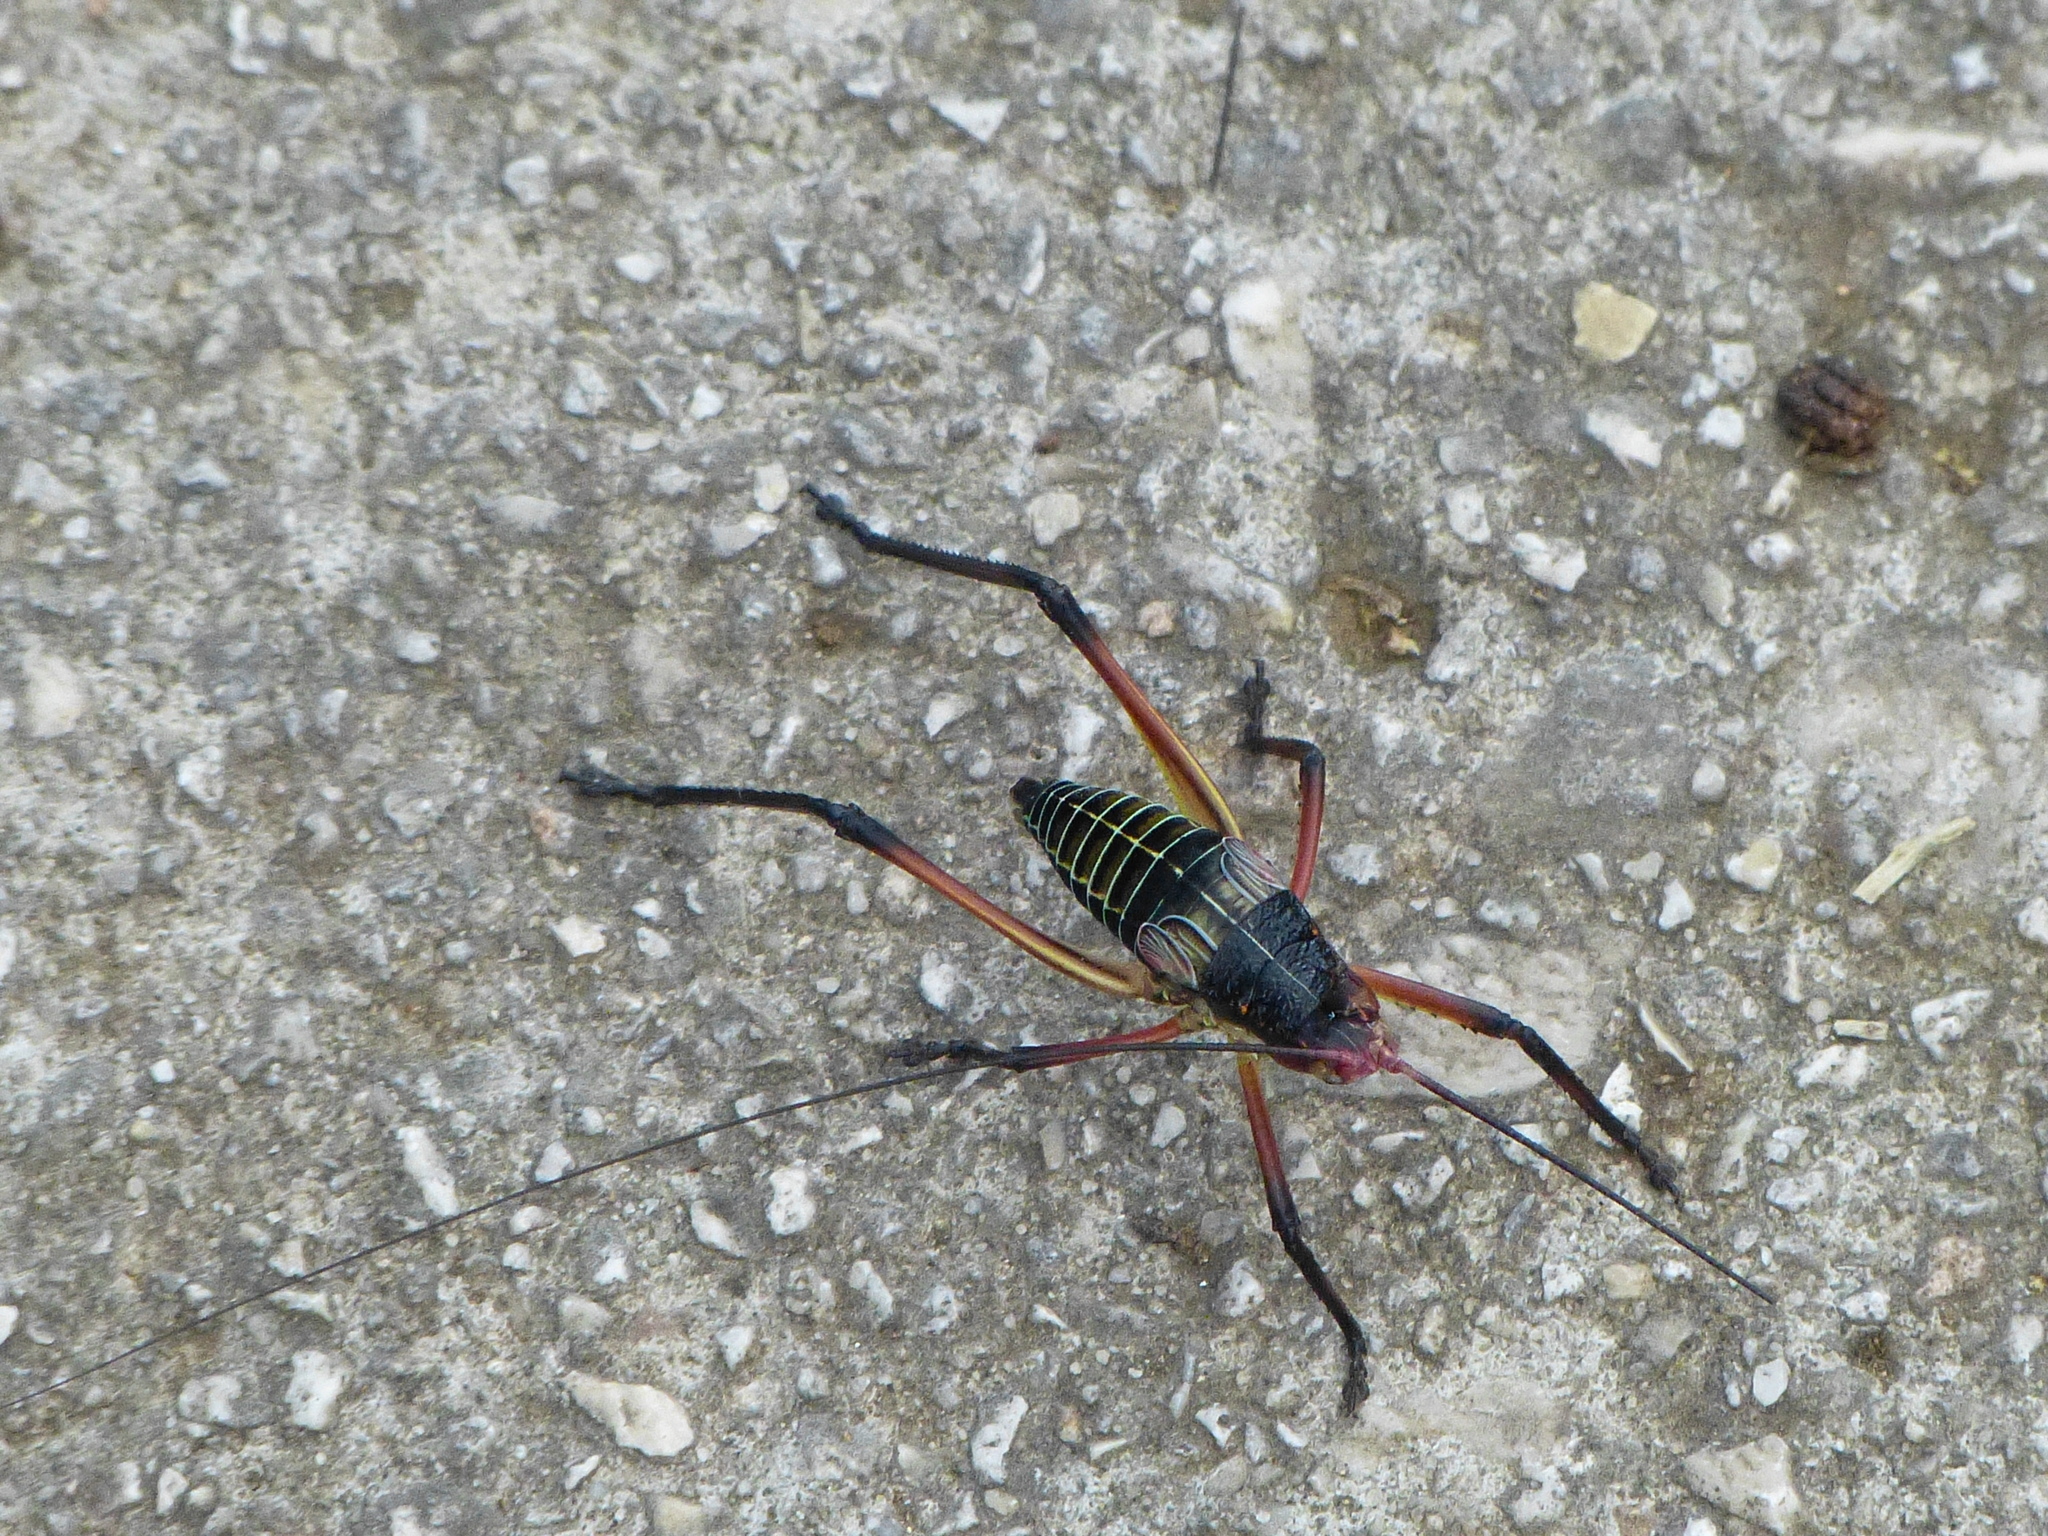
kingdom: Animalia
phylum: Arthropoda
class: Insecta
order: Orthoptera
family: Tettigoniidae
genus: Paracyrtophyllus
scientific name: Paracyrtophyllus robustus
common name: Central texas leaf katydid
